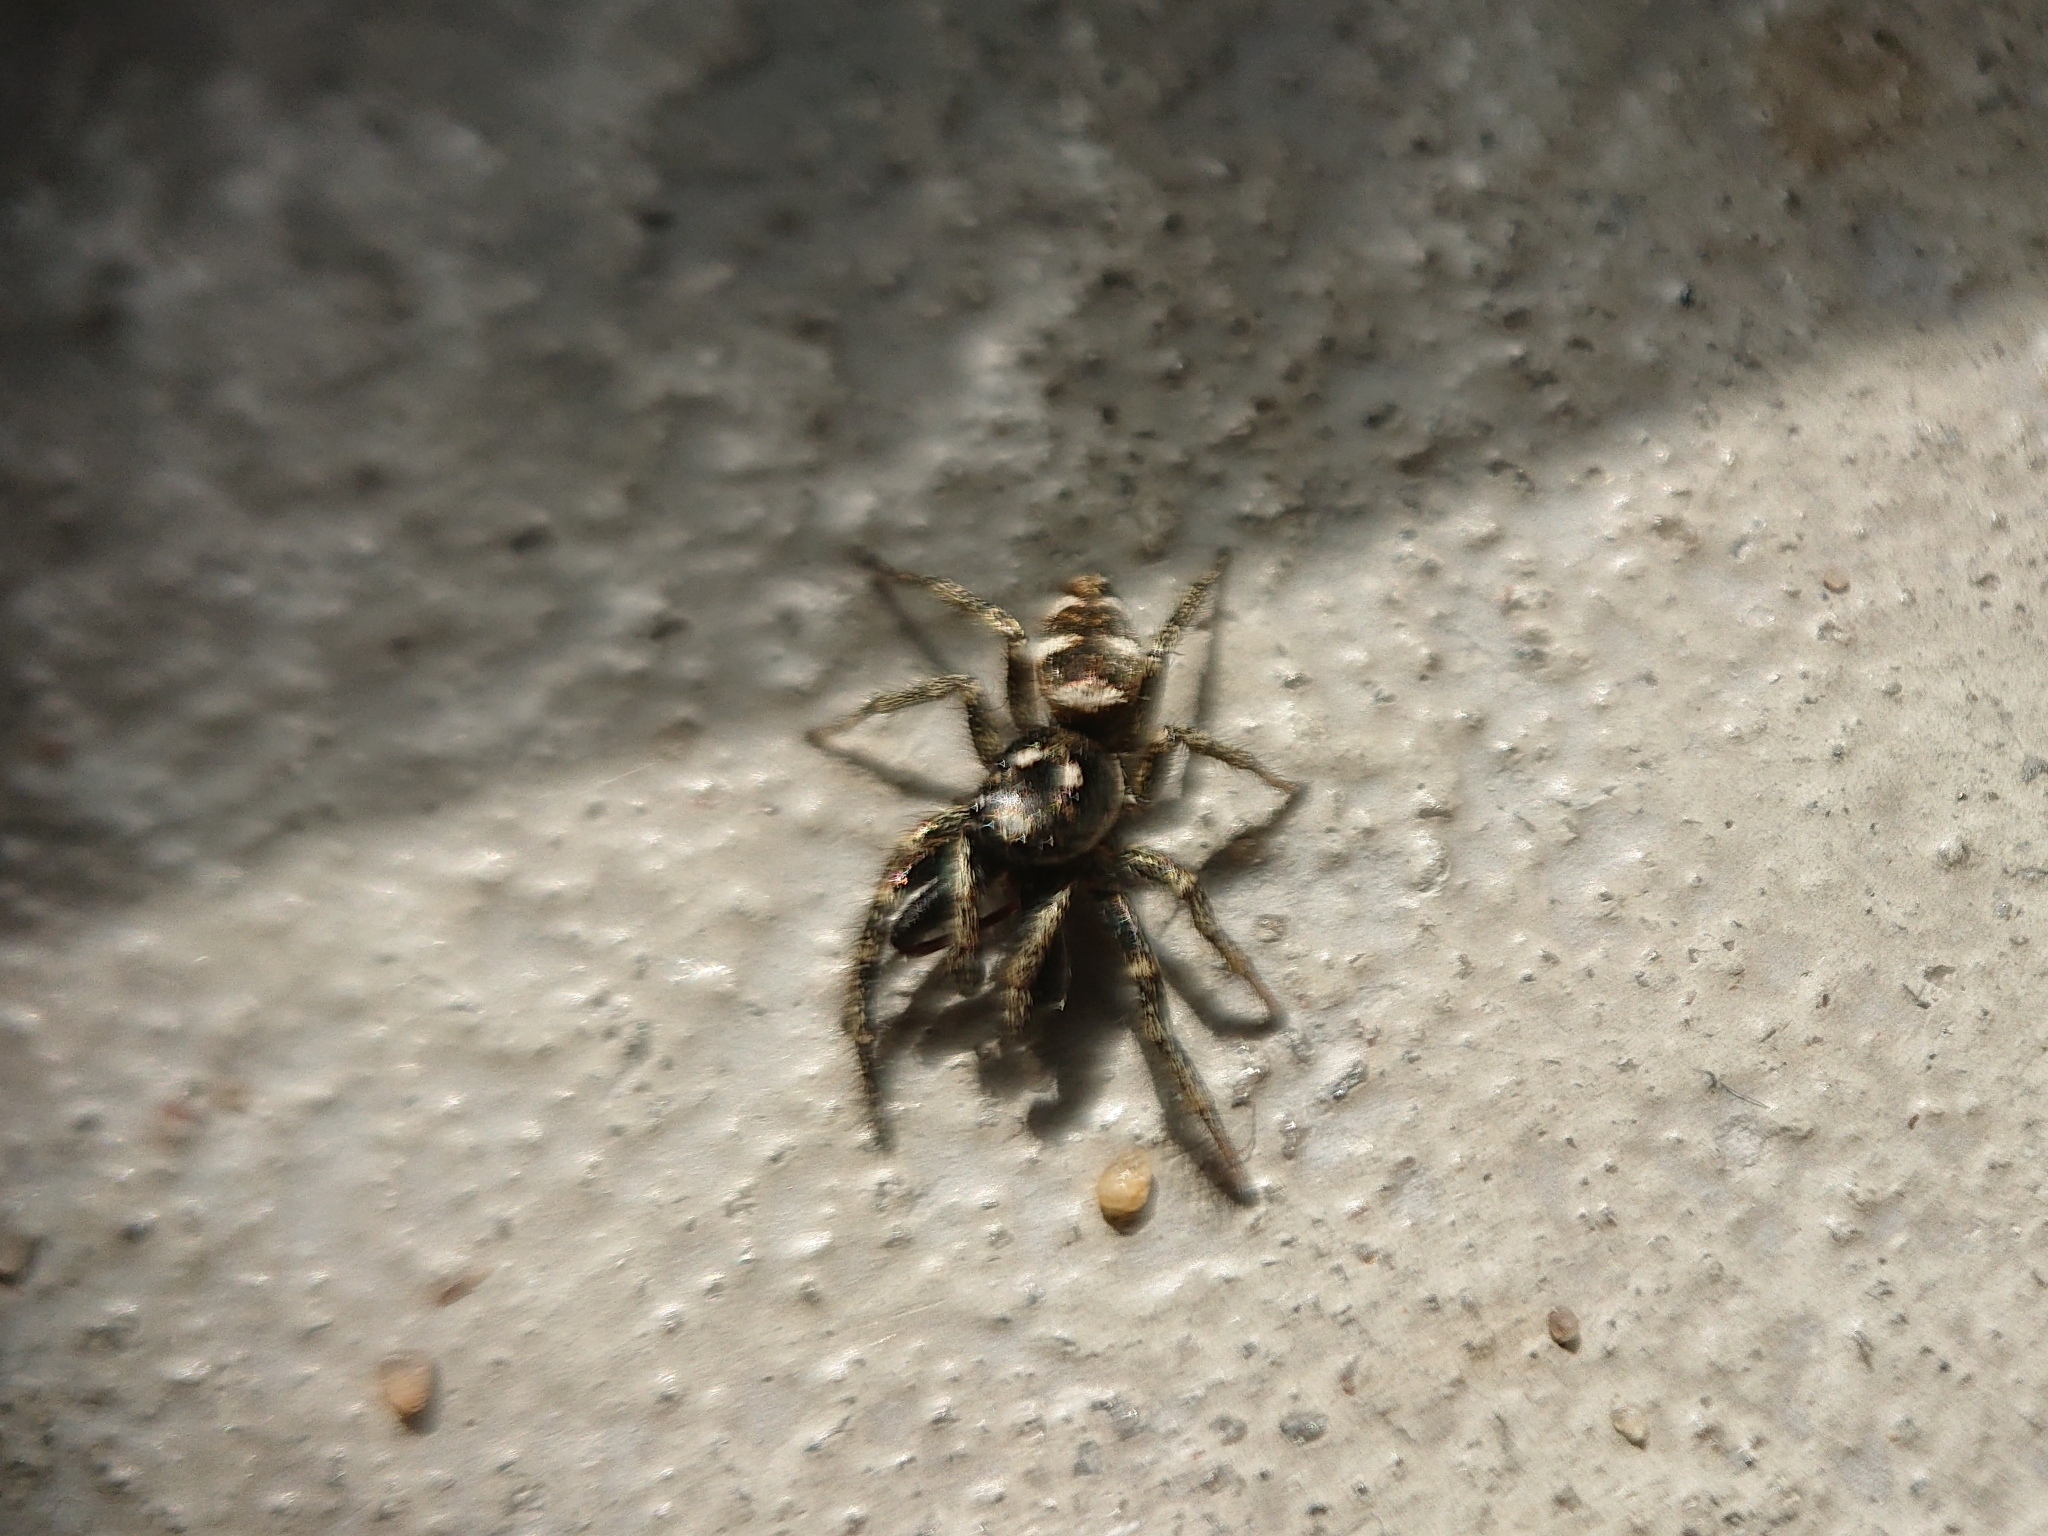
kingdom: Animalia
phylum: Arthropoda
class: Arachnida
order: Araneae
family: Salticidae
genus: Salticus
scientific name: Salticus scenicus
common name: Zebra jumper
